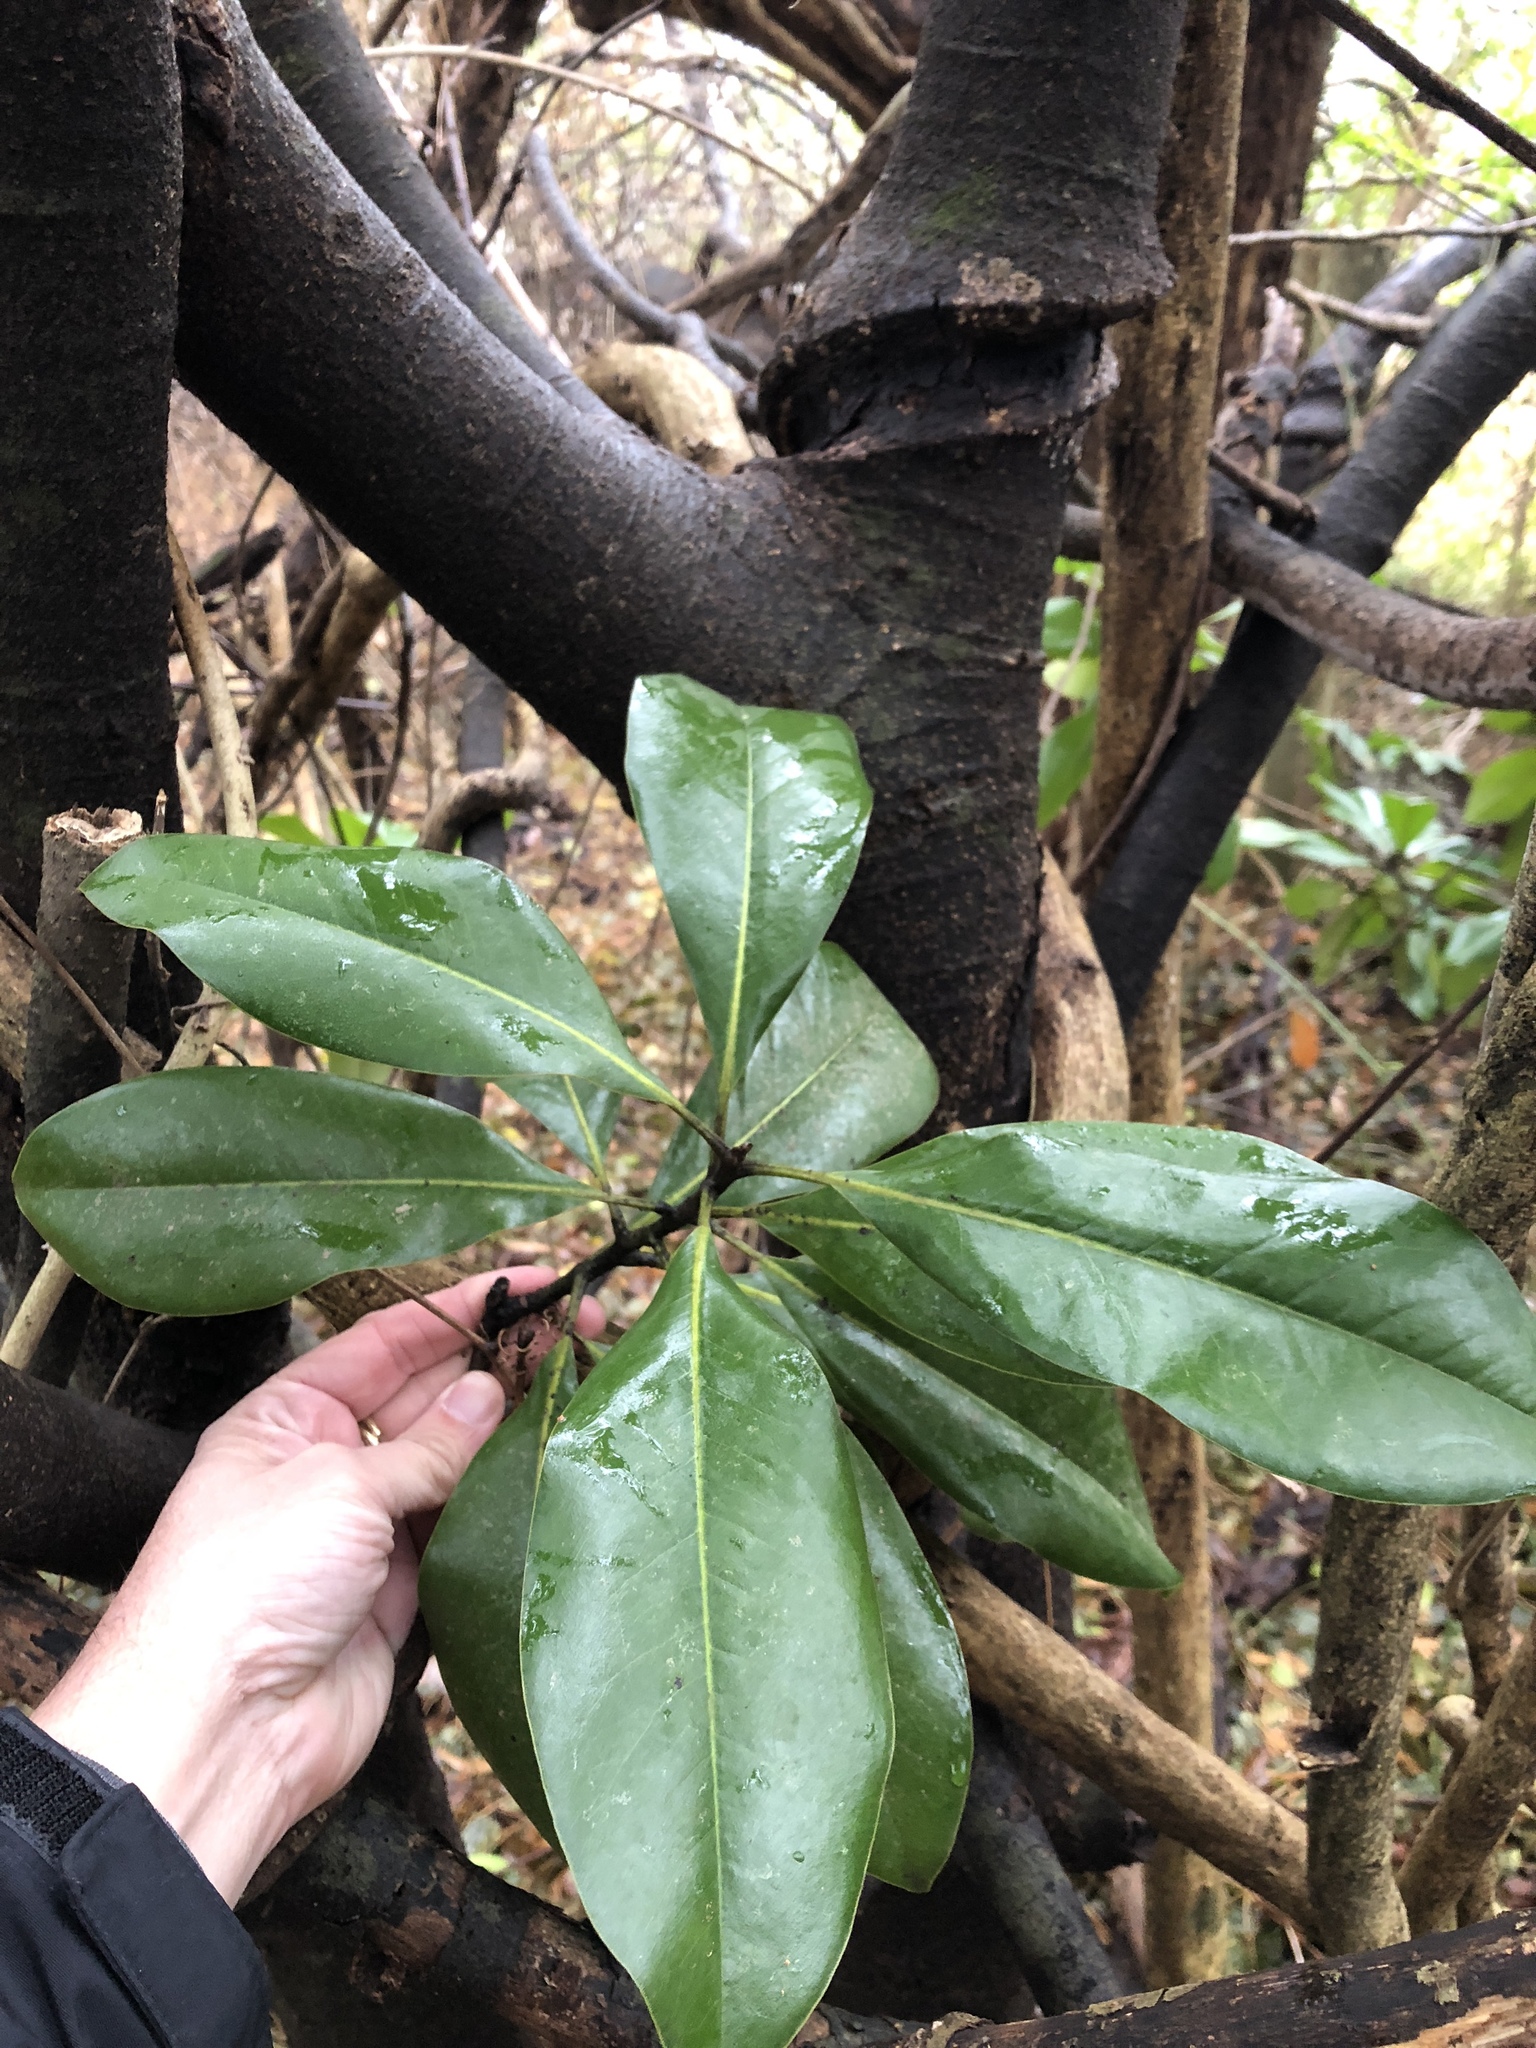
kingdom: Plantae
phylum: Tracheophyta
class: Magnoliopsida
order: Magnoliales
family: Magnoliaceae
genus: Magnolia
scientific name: Magnolia grandiflora
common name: Southern magnolia
